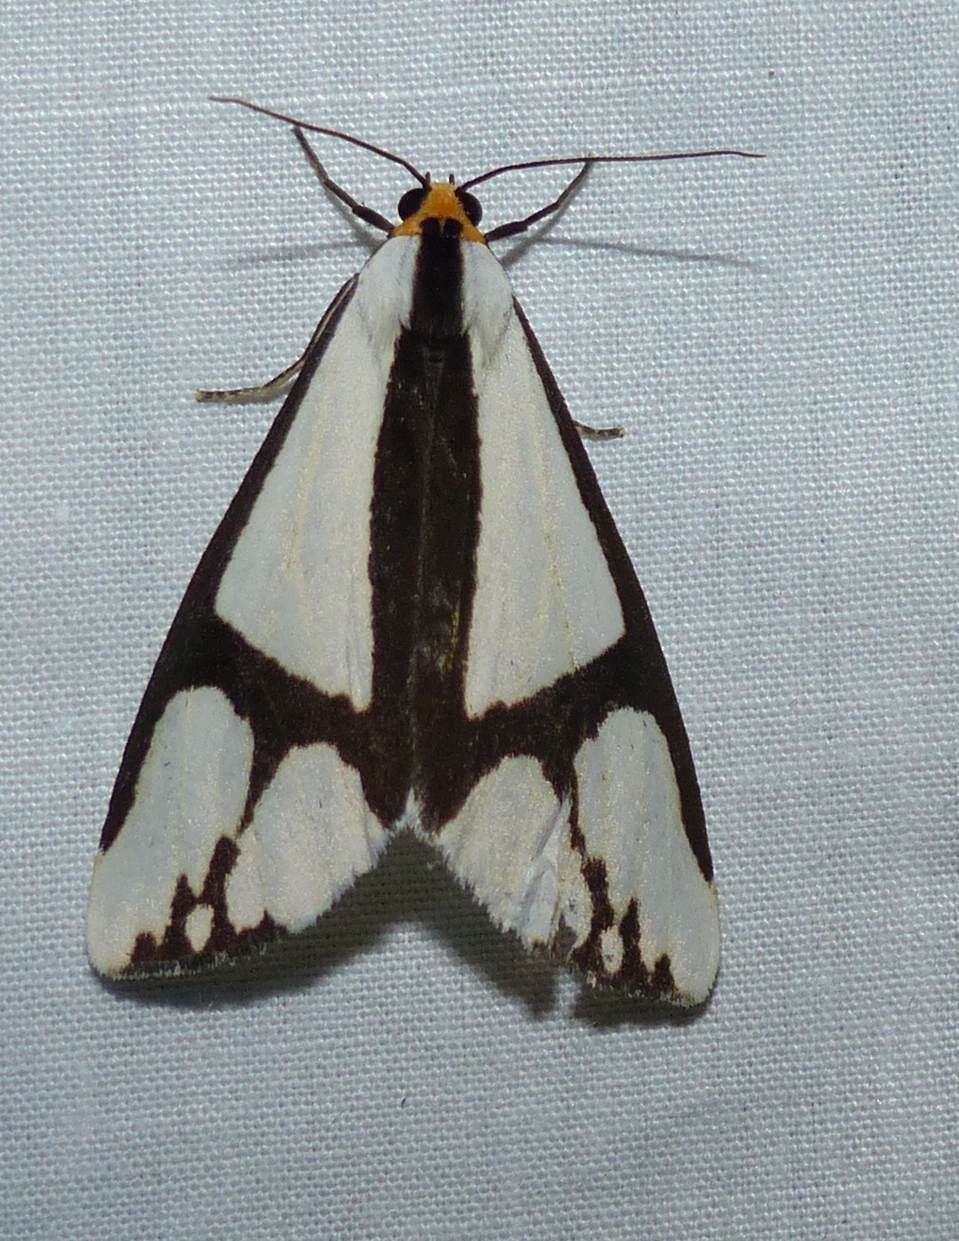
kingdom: Animalia
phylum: Arthropoda
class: Insecta
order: Lepidoptera
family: Erebidae
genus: Haploa
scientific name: Haploa contigua
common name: Neighbor moth
